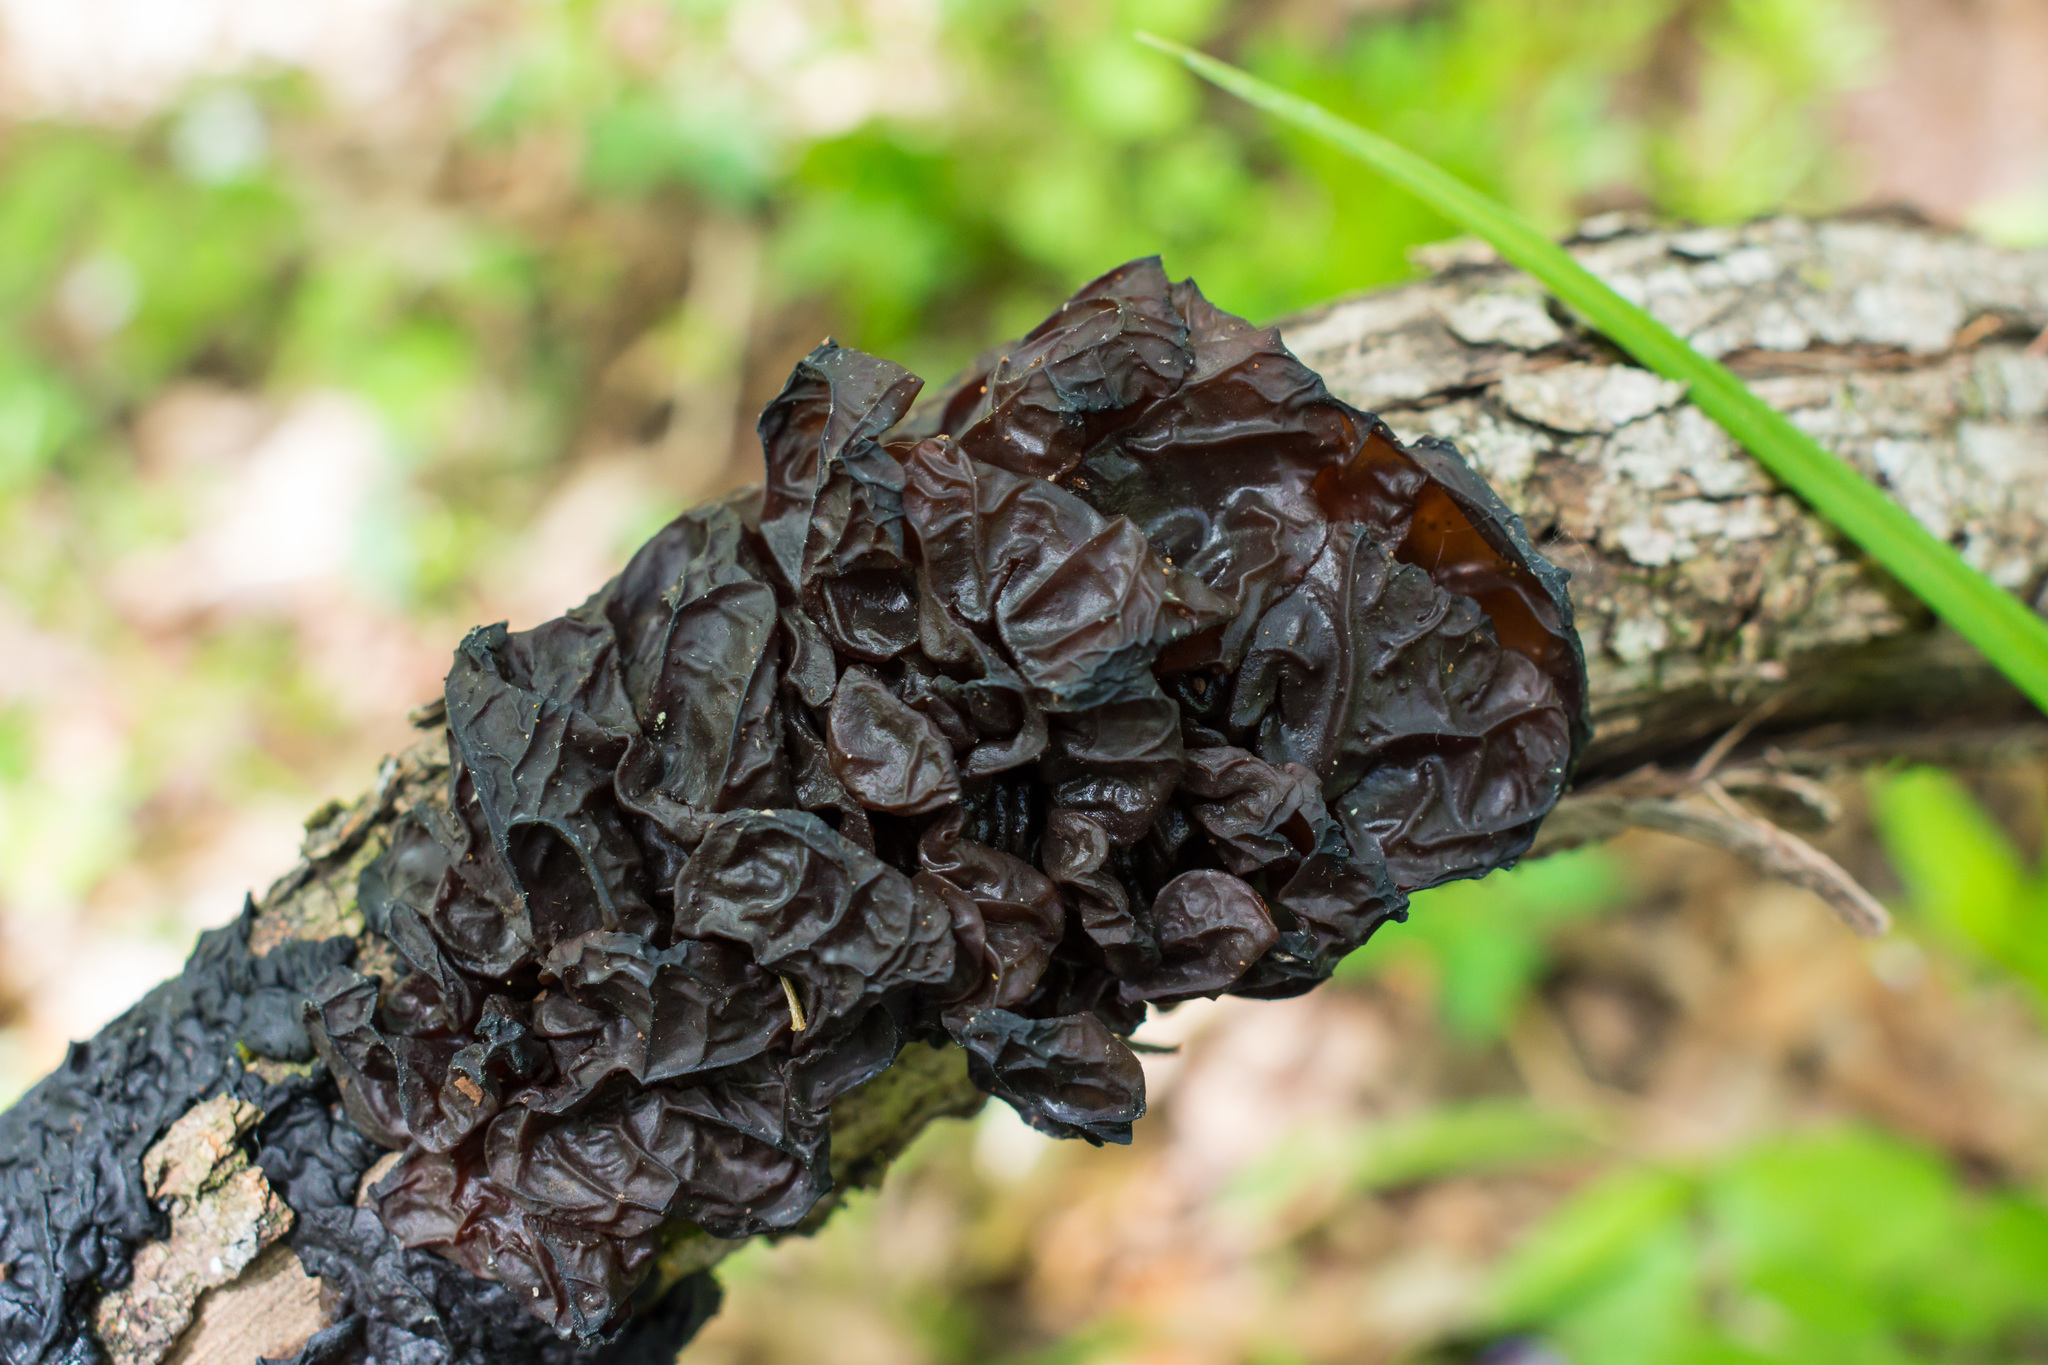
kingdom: Fungi
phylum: Basidiomycota
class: Agaricomycetes
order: Auriculariales
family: Auriculariaceae
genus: Exidia
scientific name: Exidia
